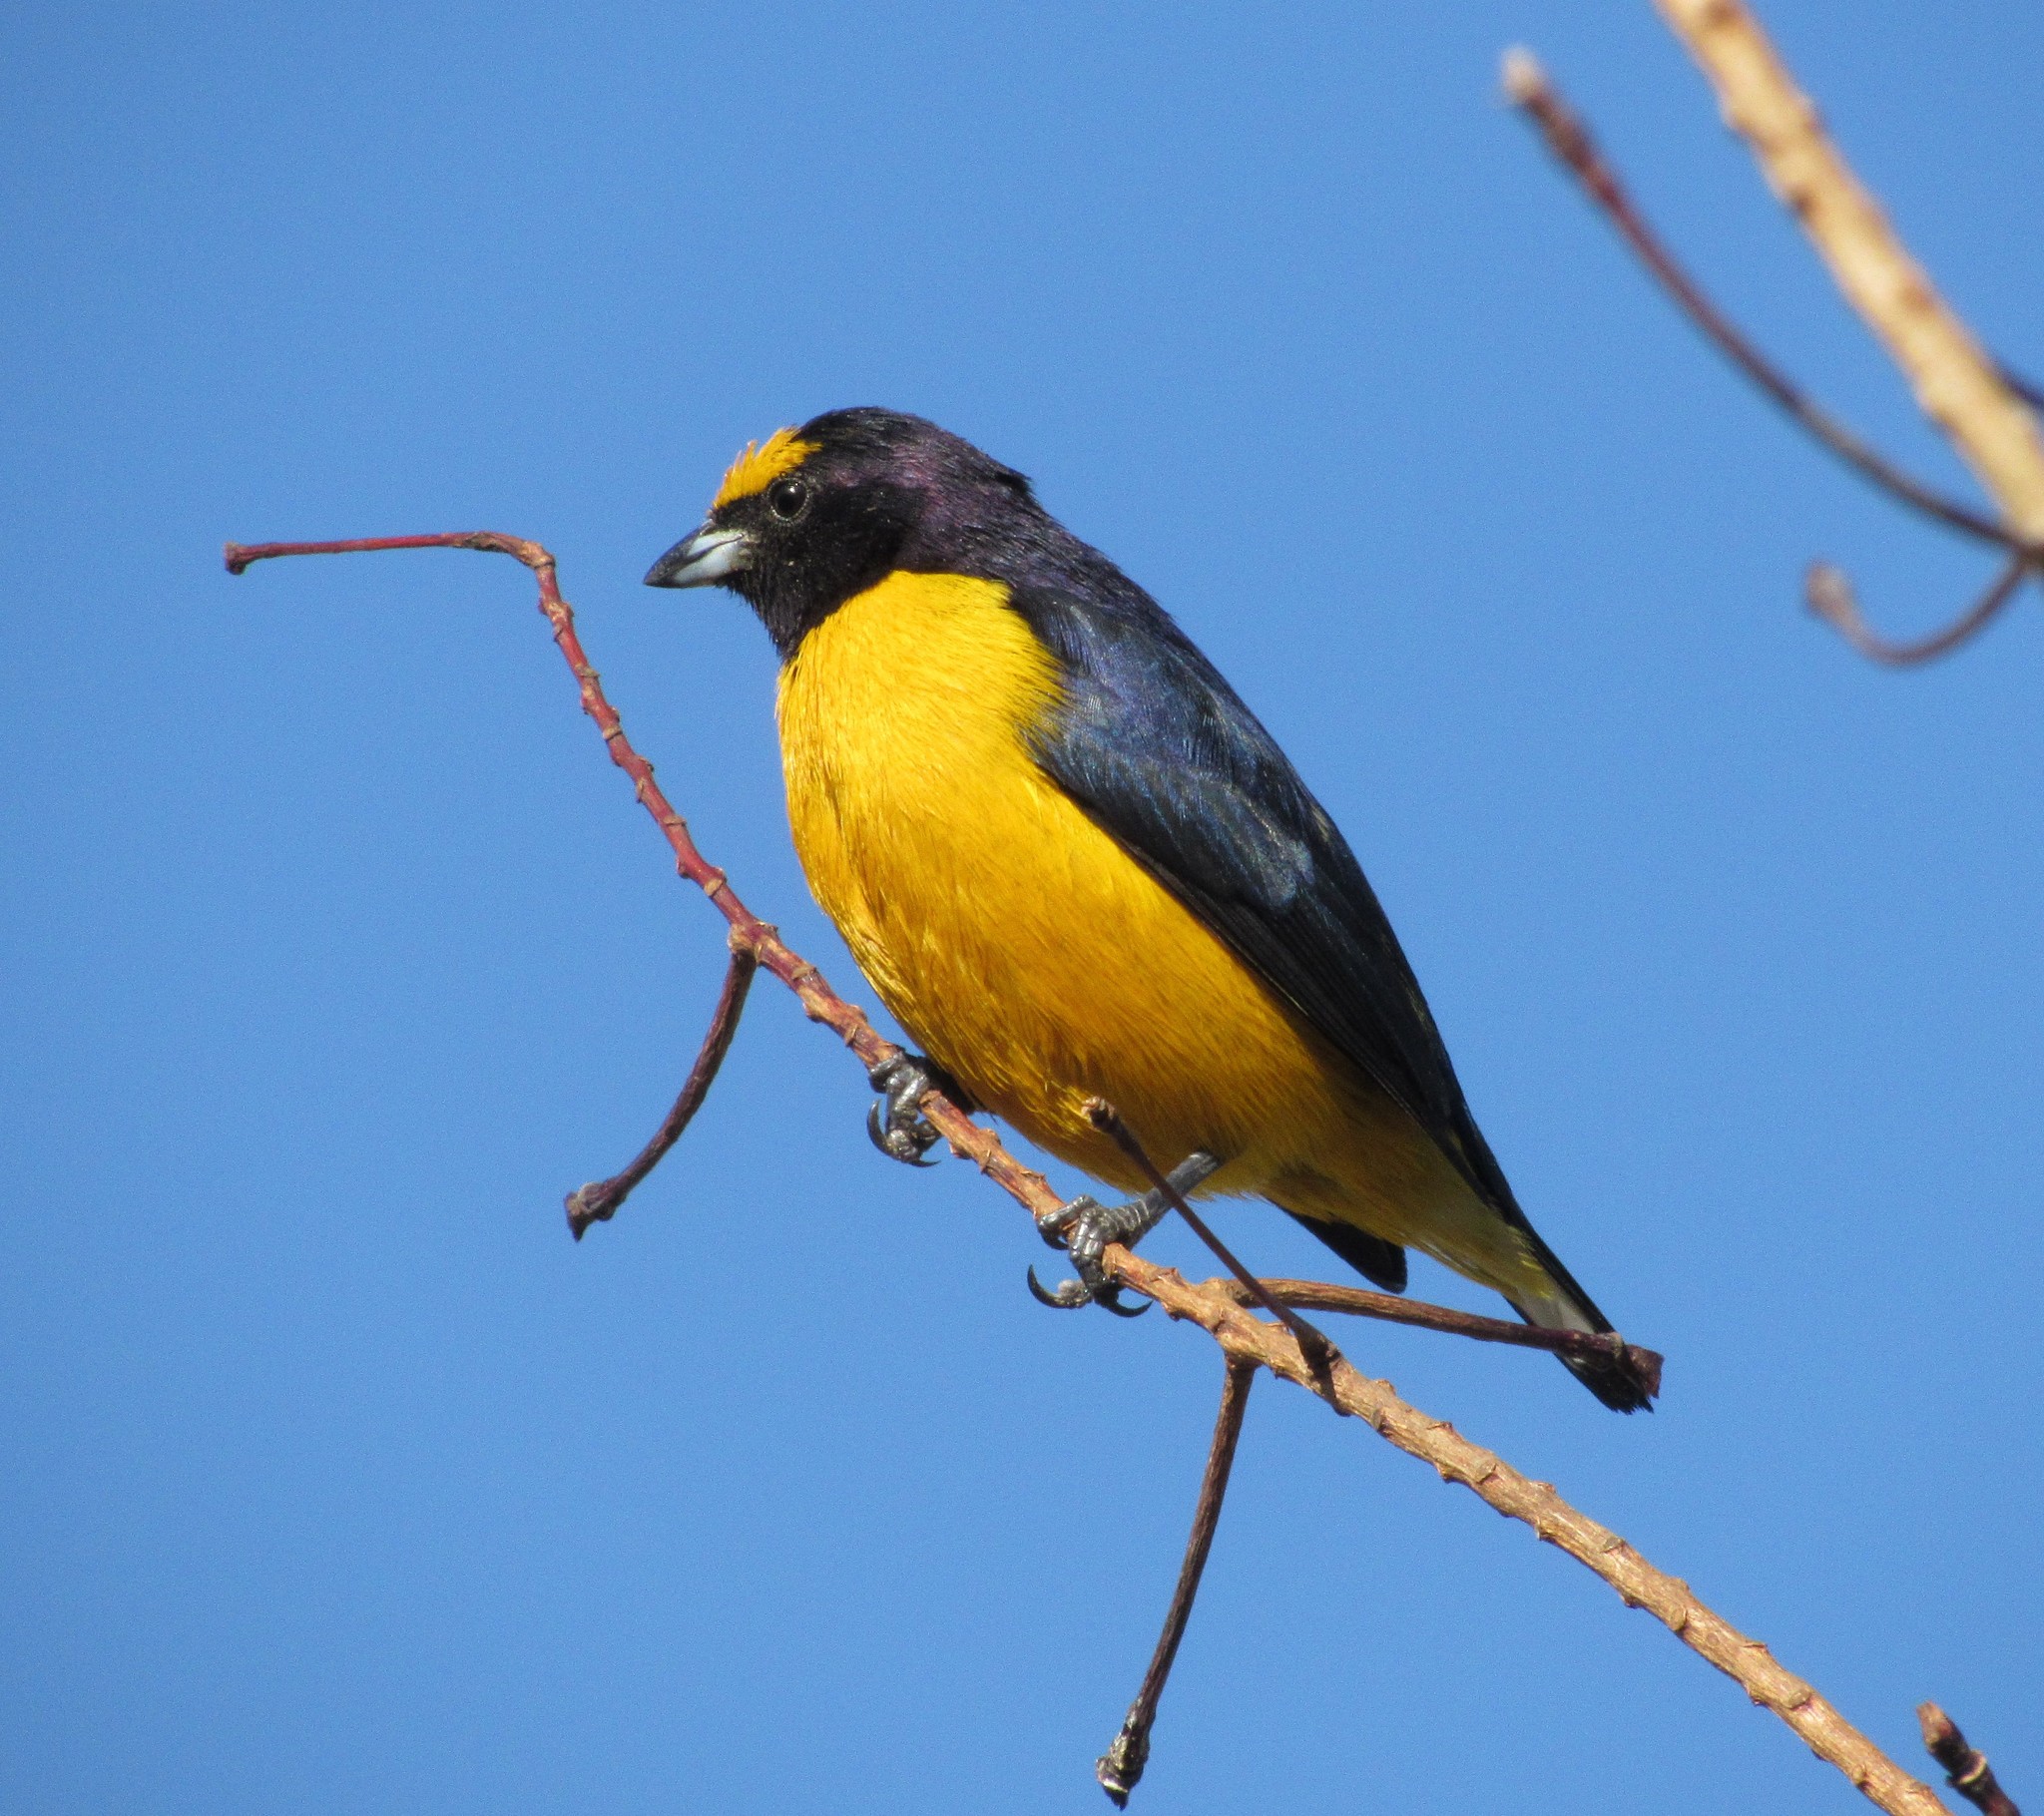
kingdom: Animalia
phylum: Chordata
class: Aves
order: Passeriformes
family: Fringillidae
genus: Euphonia
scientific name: Euphonia chlorotica
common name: Purple-throated euphonia
